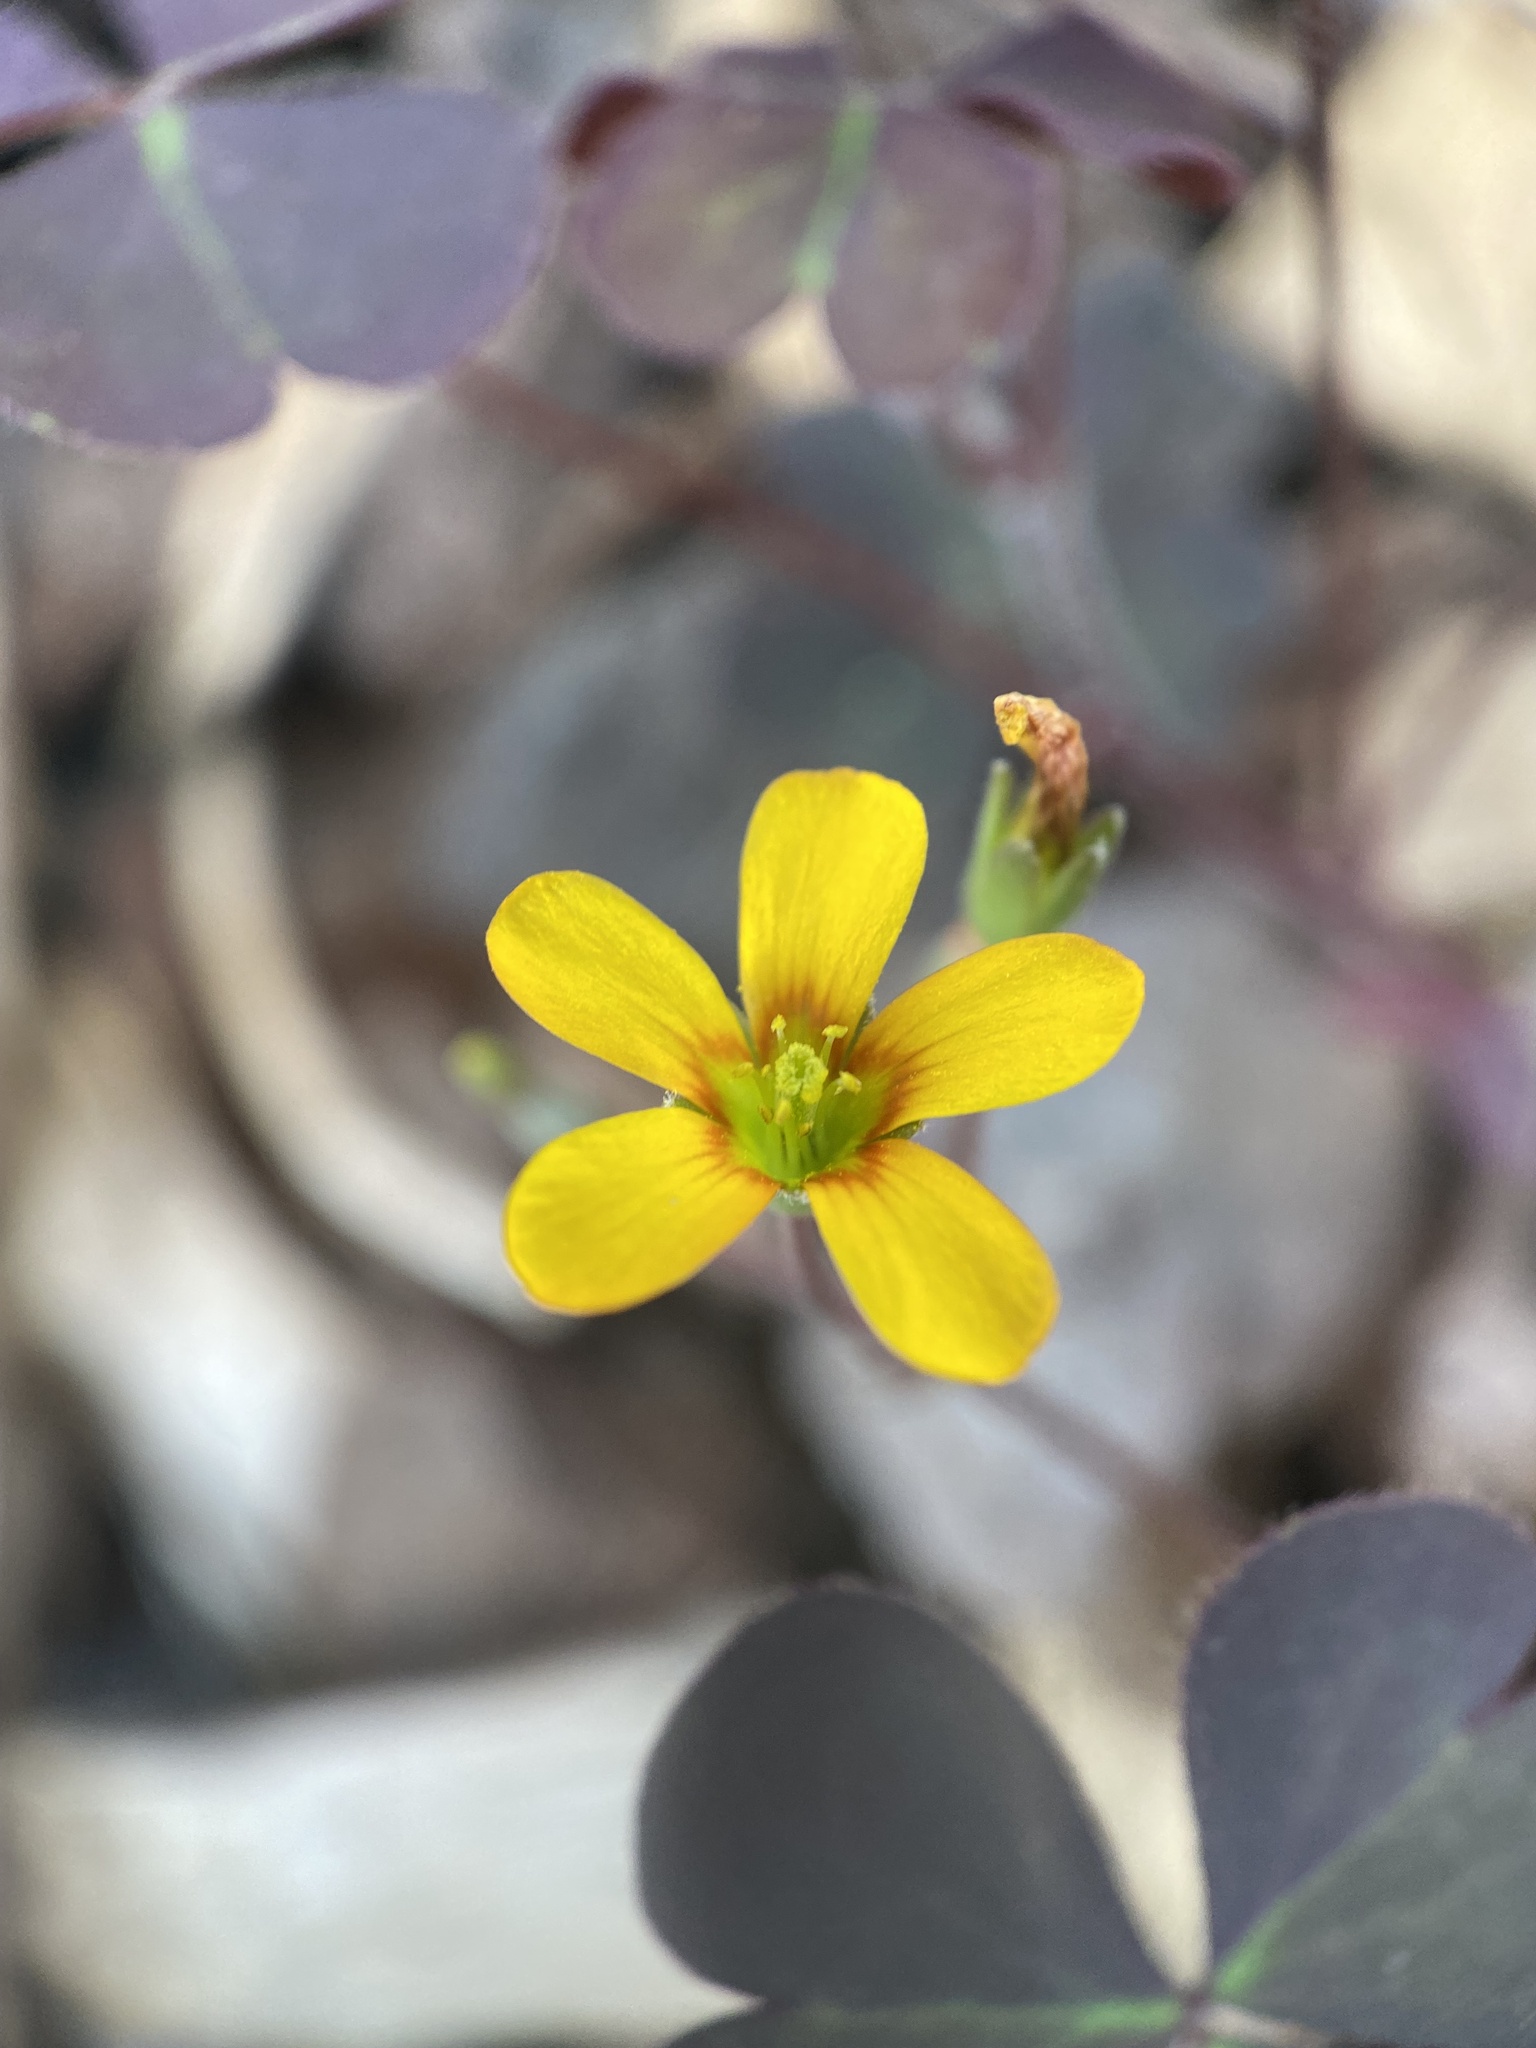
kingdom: Plantae
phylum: Tracheophyta
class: Magnoliopsida
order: Oxalidales
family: Oxalidaceae
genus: Oxalis
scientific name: Oxalis corniculata
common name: Procumbent yellow-sorrel
